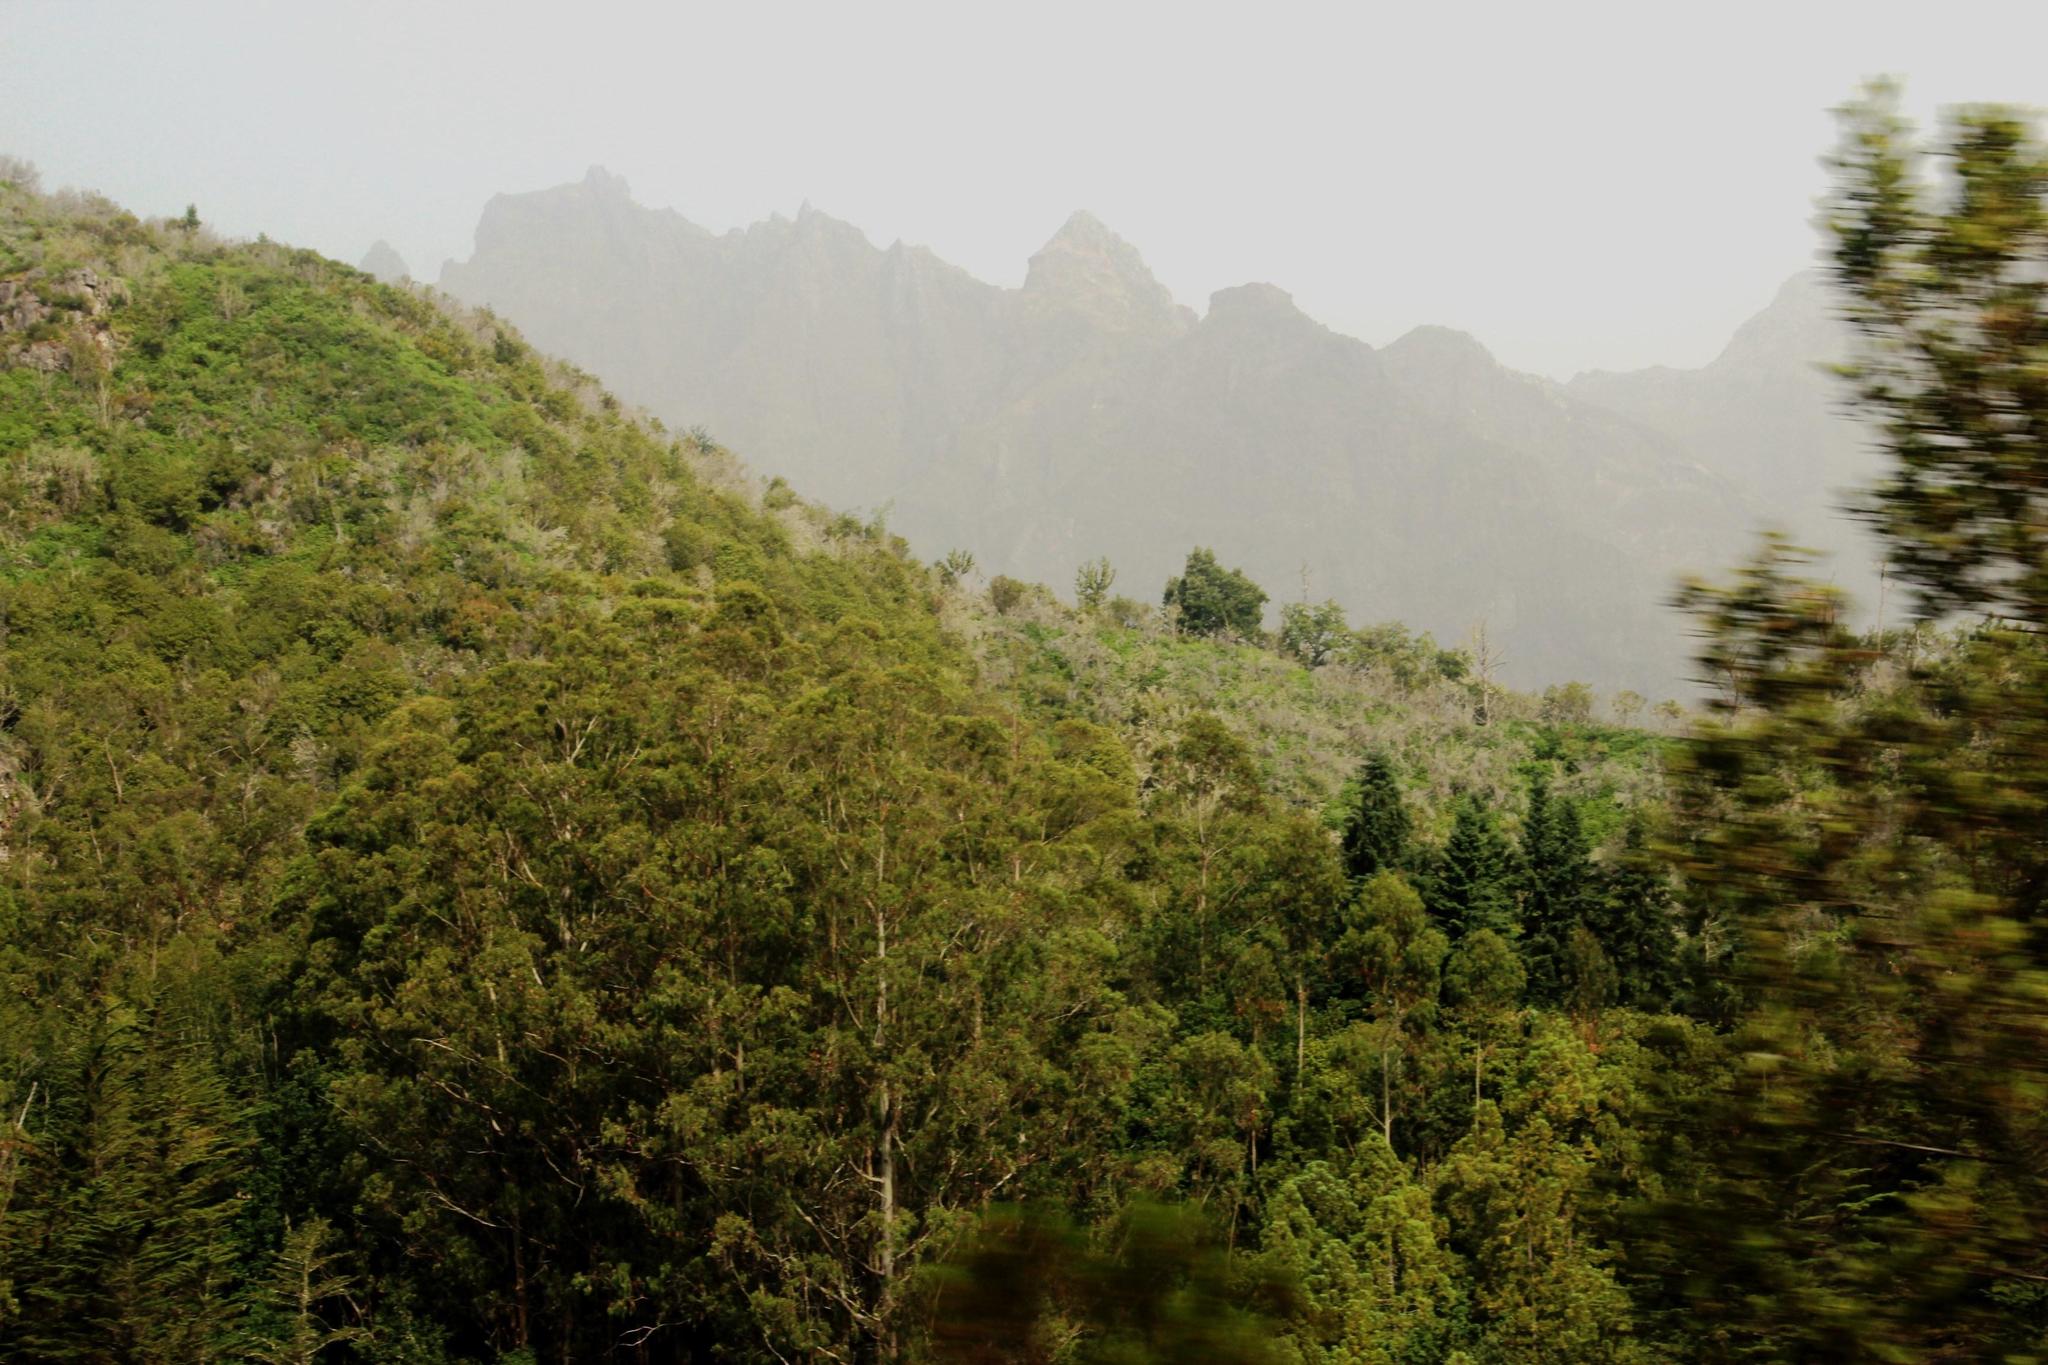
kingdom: Plantae
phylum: Tracheophyta
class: Magnoliopsida
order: Fabales
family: Fabaceae
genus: Acacia
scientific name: Acacia melanoxylon
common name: Blackwood
